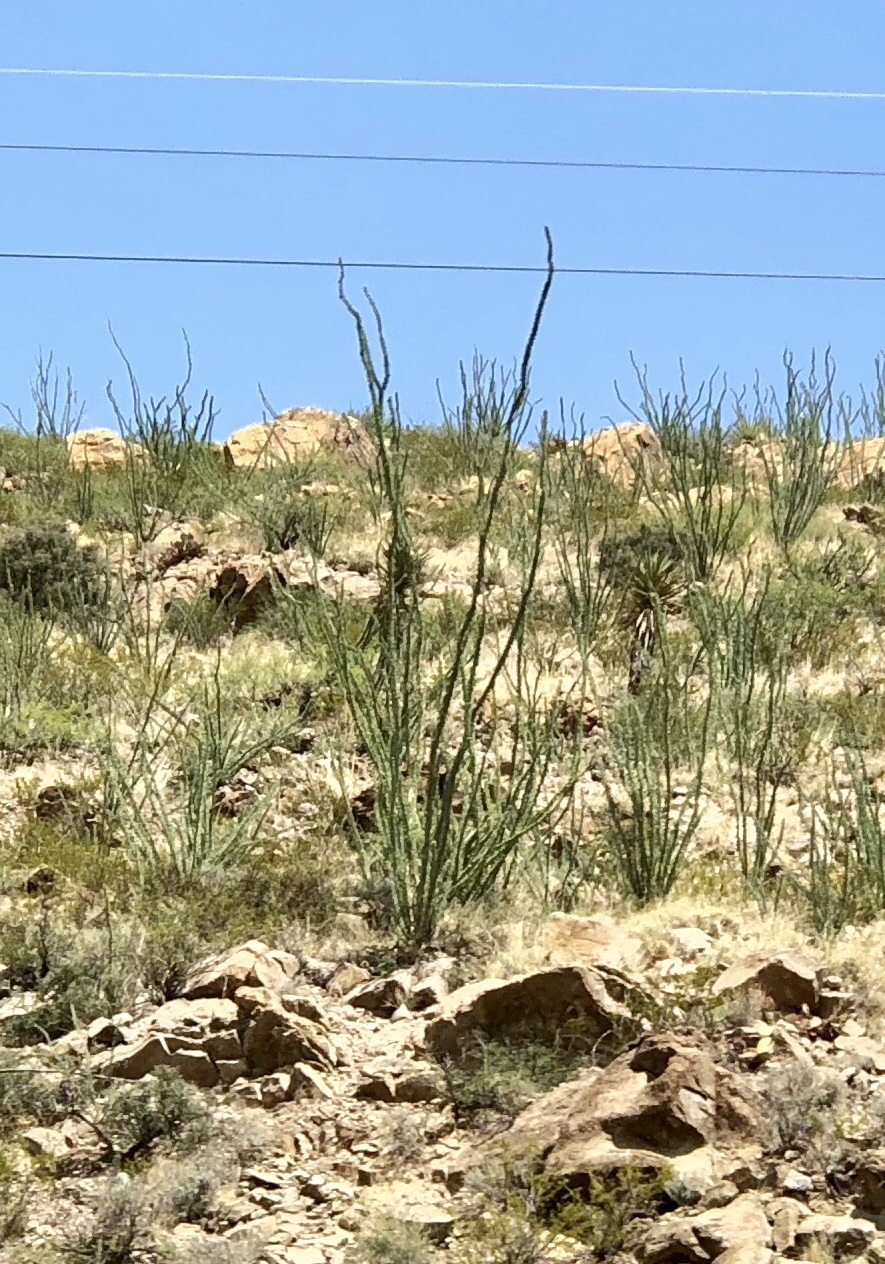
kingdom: Plantae
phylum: Tracheophyta
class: Magnoliopsida
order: Ericales
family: Fouquieriaceae
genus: Fouquieria
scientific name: Fouquieria splendens
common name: Vine-cactus
